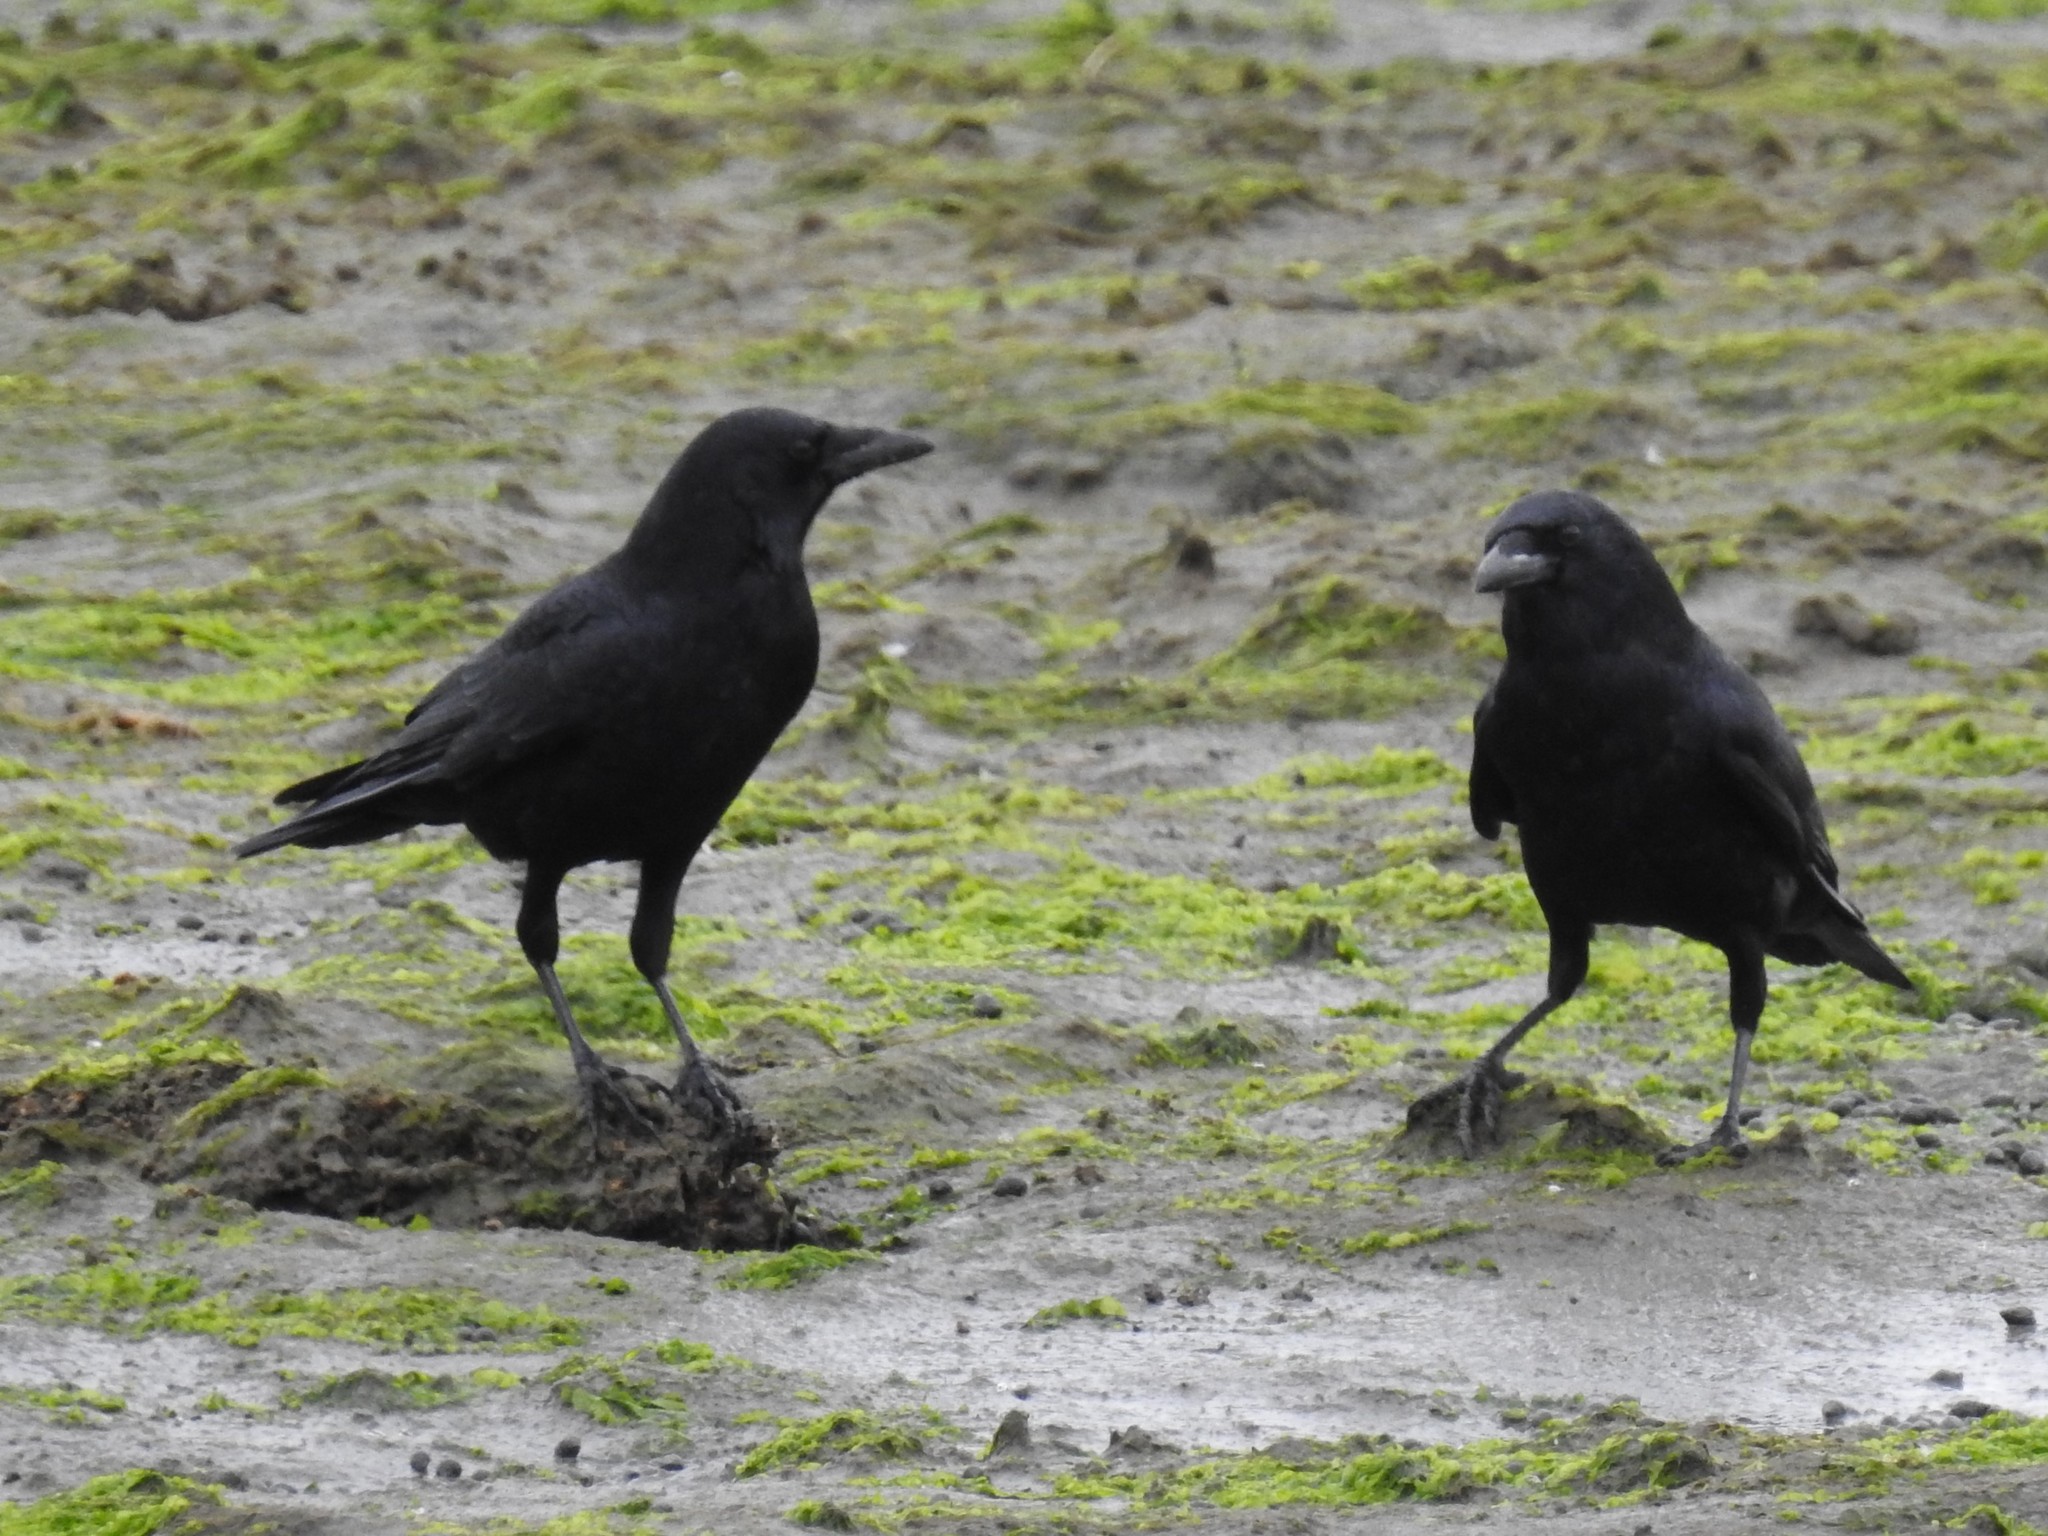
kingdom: Animalia
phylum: Chordata
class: Aves
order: Passeriformes
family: Corvidae
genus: Corvus
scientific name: Corvus brachyrhynchos
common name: American crow
